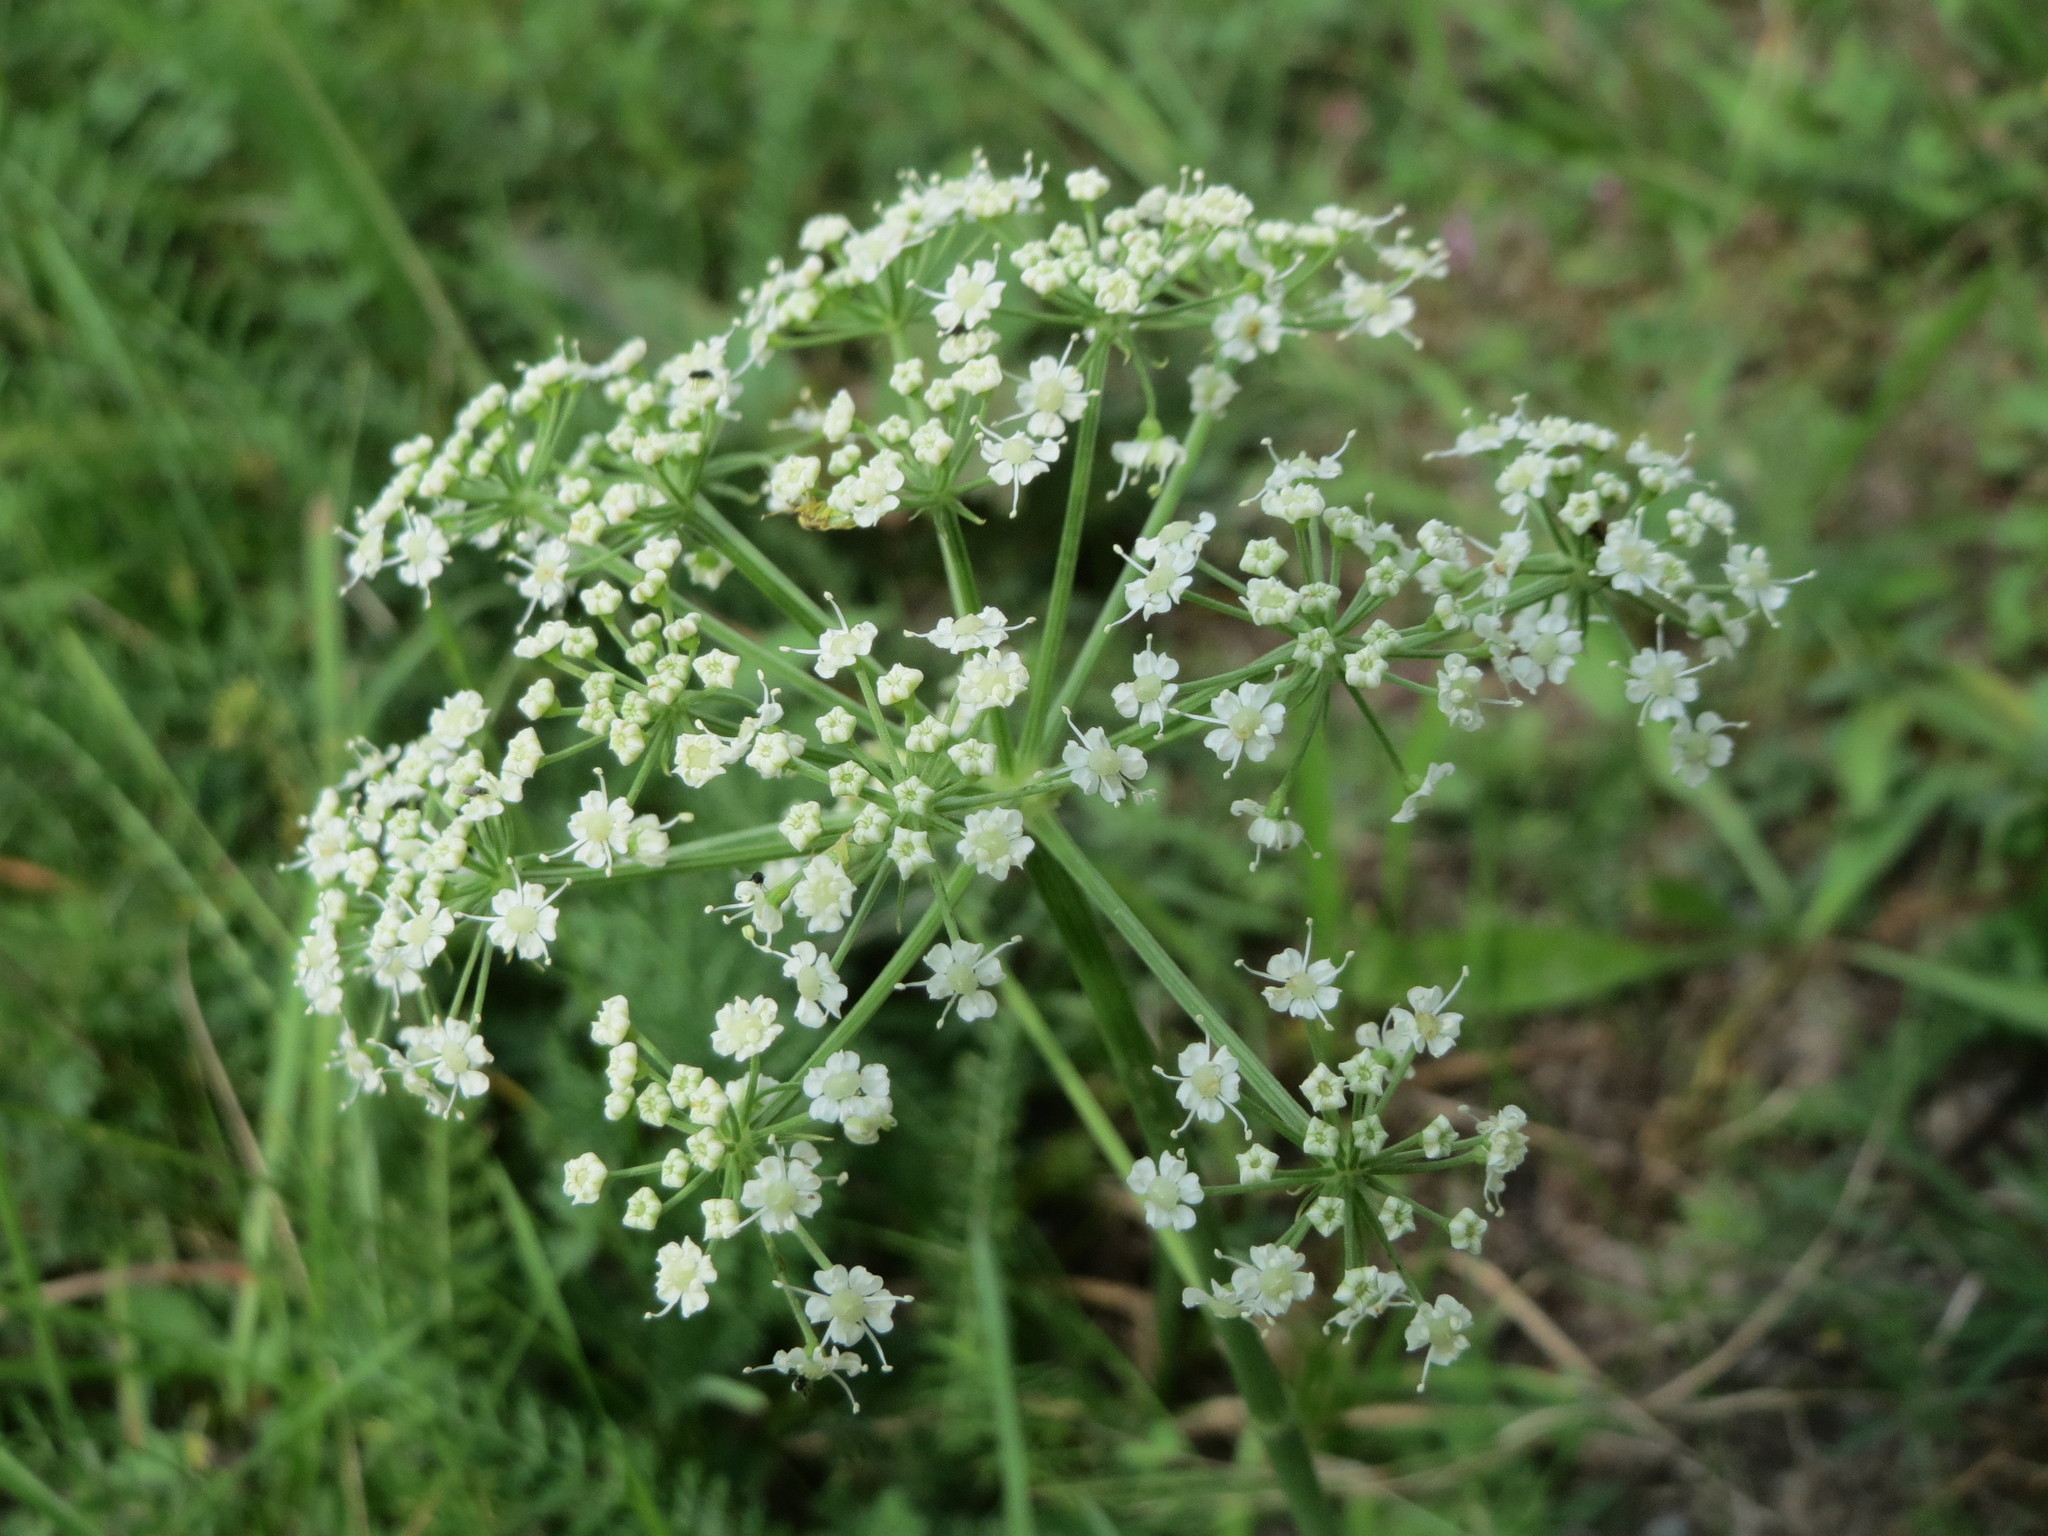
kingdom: Plantae
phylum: Tracheophyta
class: Magnoliopsida
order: Apiales
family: Apiaceae
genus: Oreoselinum
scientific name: Oreoselinum nigrum
